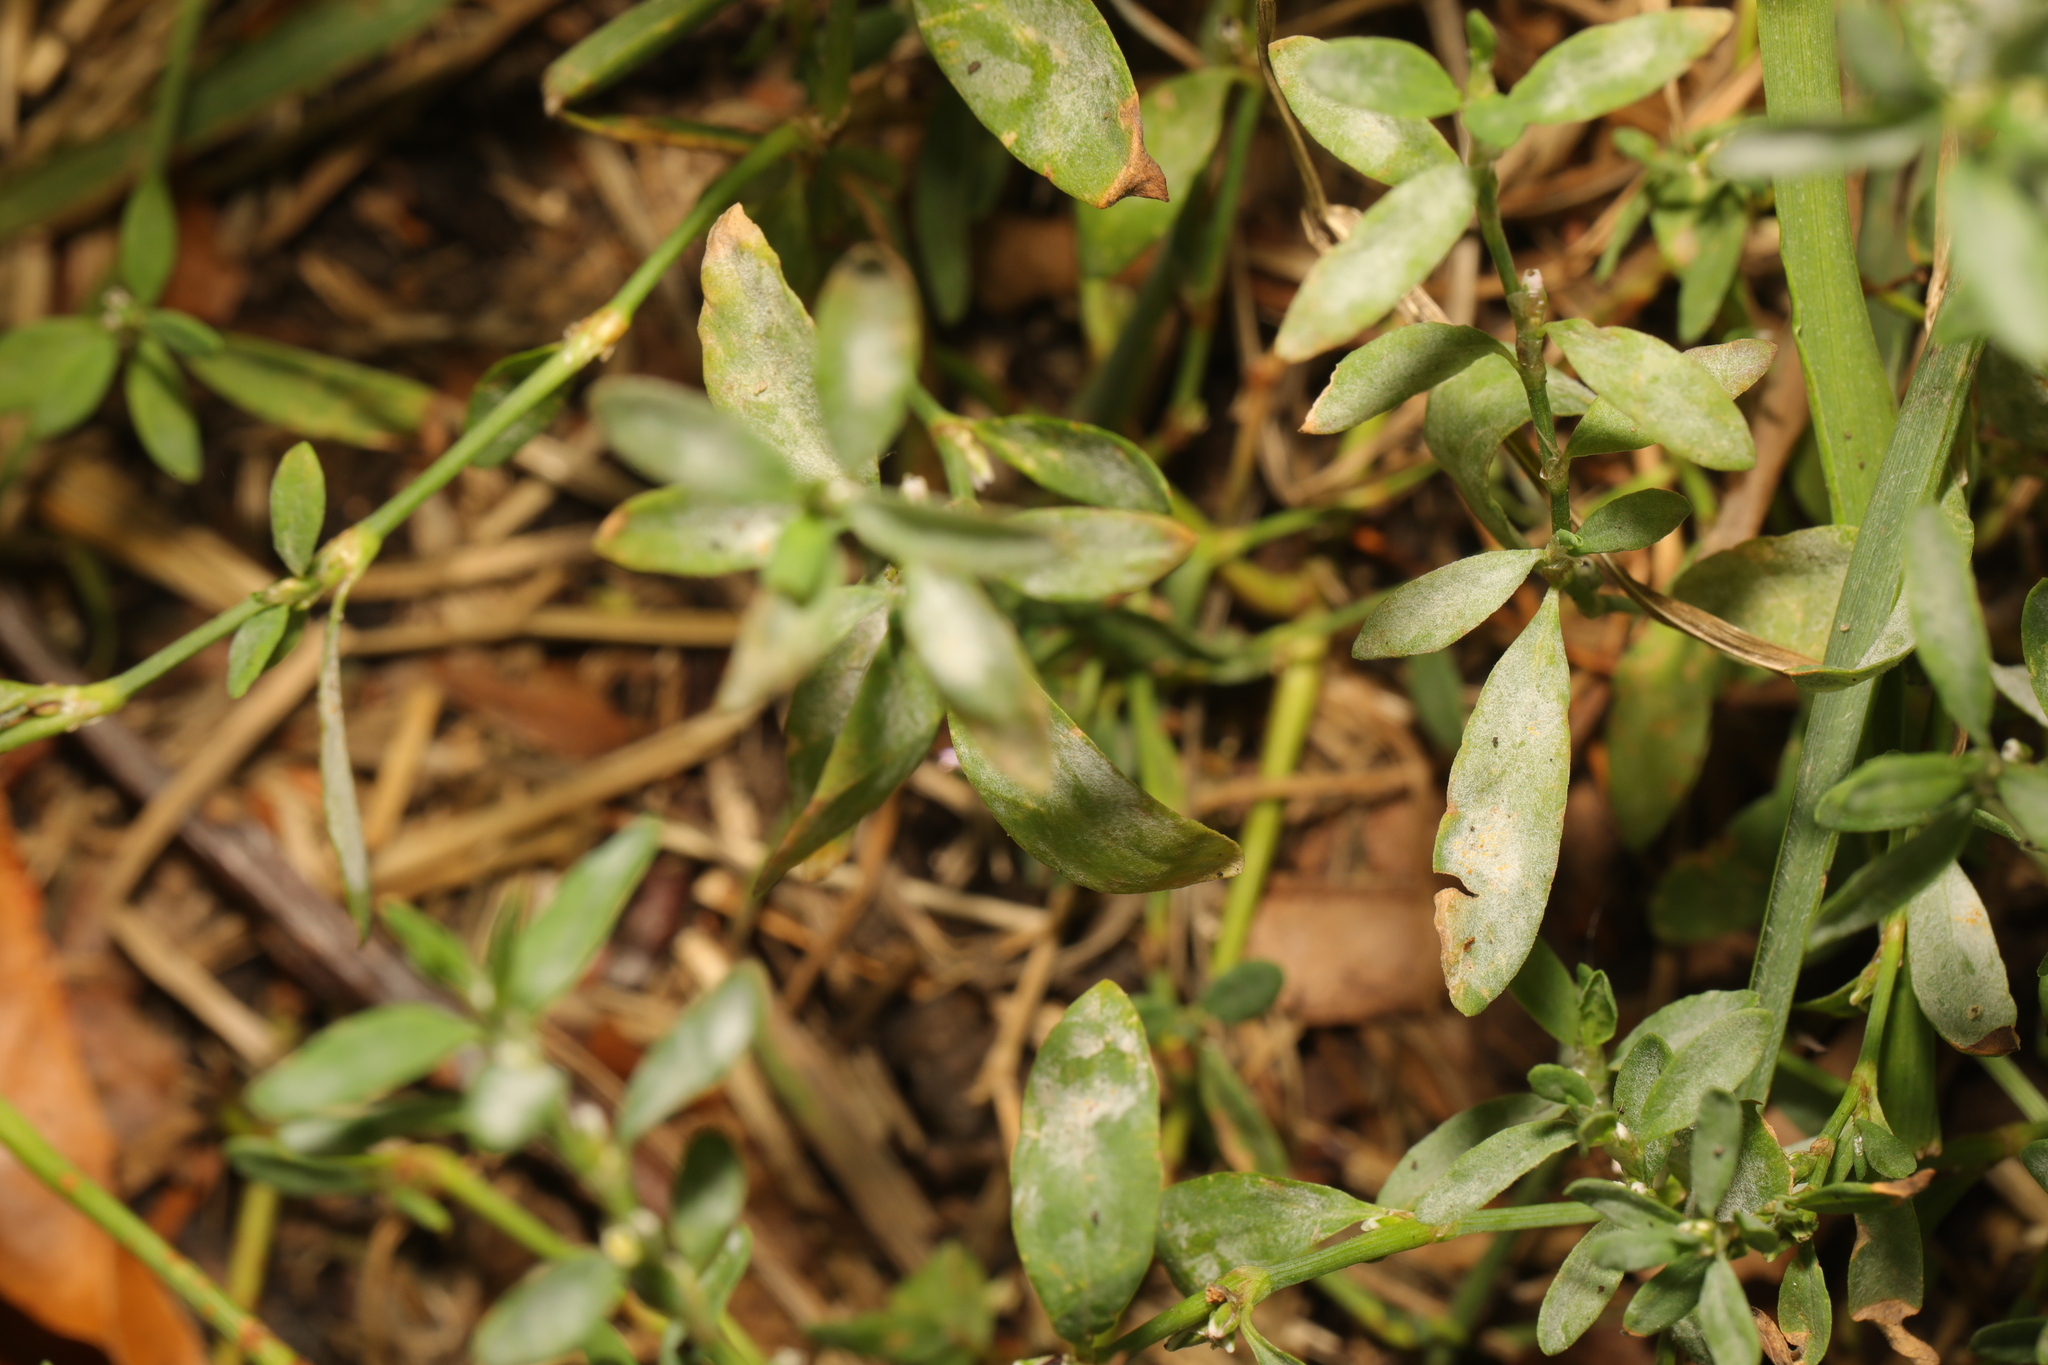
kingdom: Fungi
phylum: Ascomycota
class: Leotiomycetes
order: Helotiales
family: Erysiphaceae
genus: Erysiphe
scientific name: Erysiphe polygoni
